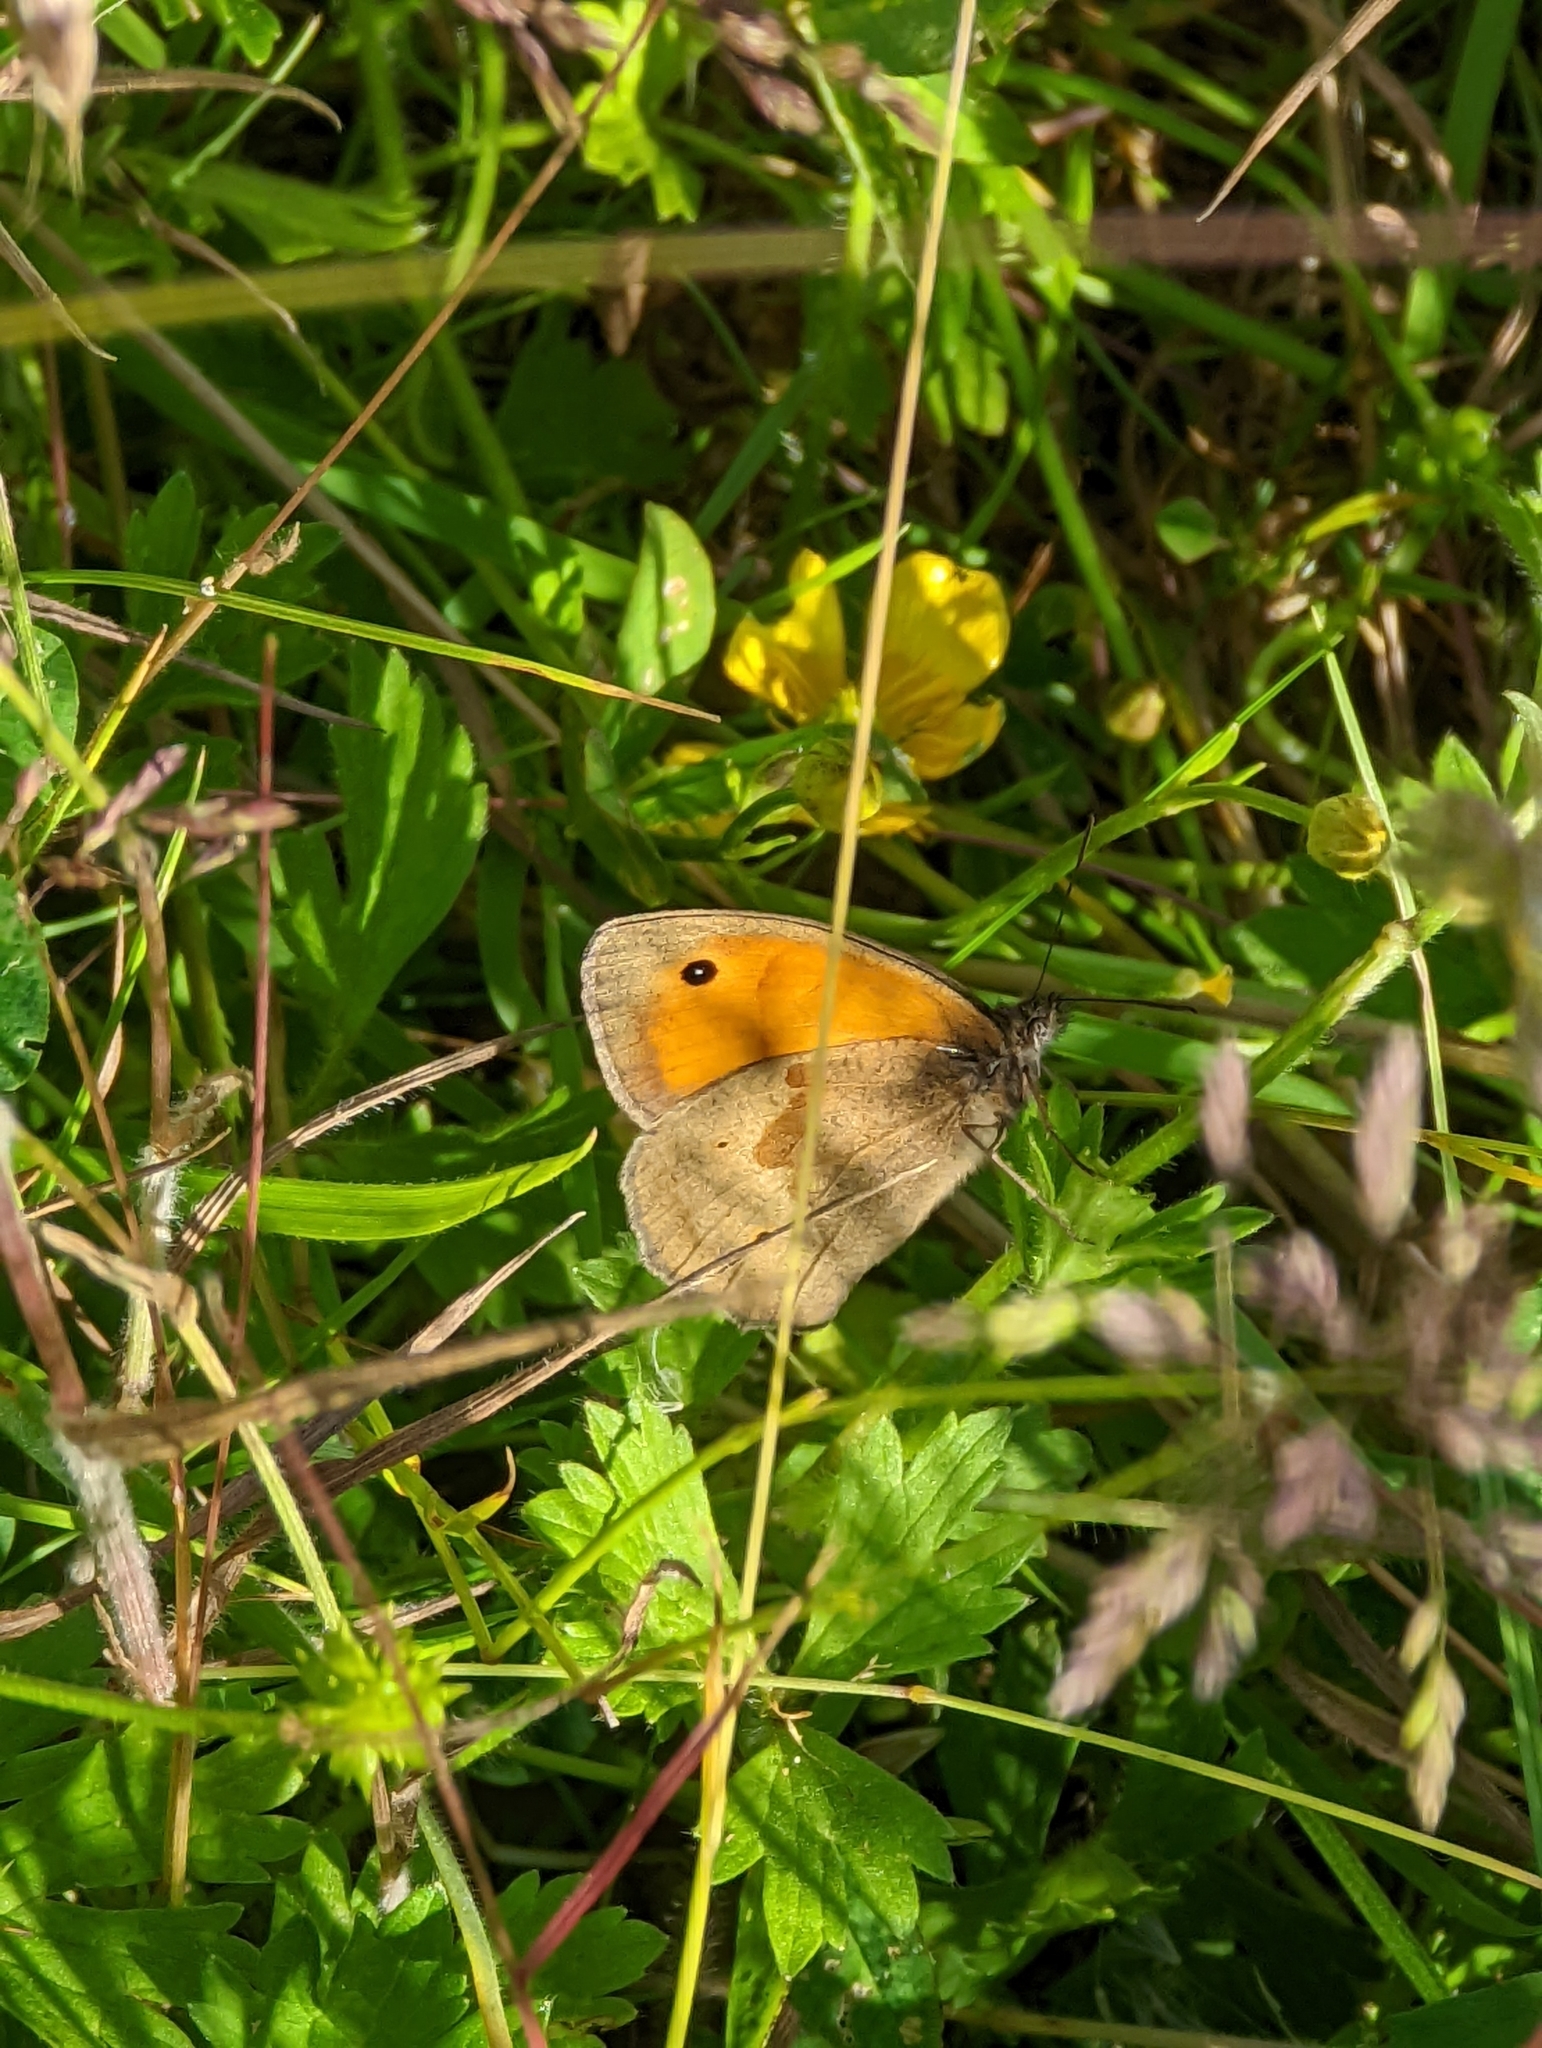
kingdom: Animalia
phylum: Arthropoda
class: Insecta
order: Lepidoptera
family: Nymphalidae
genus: Maniola
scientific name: Maniola jurtina
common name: Meadow brown
